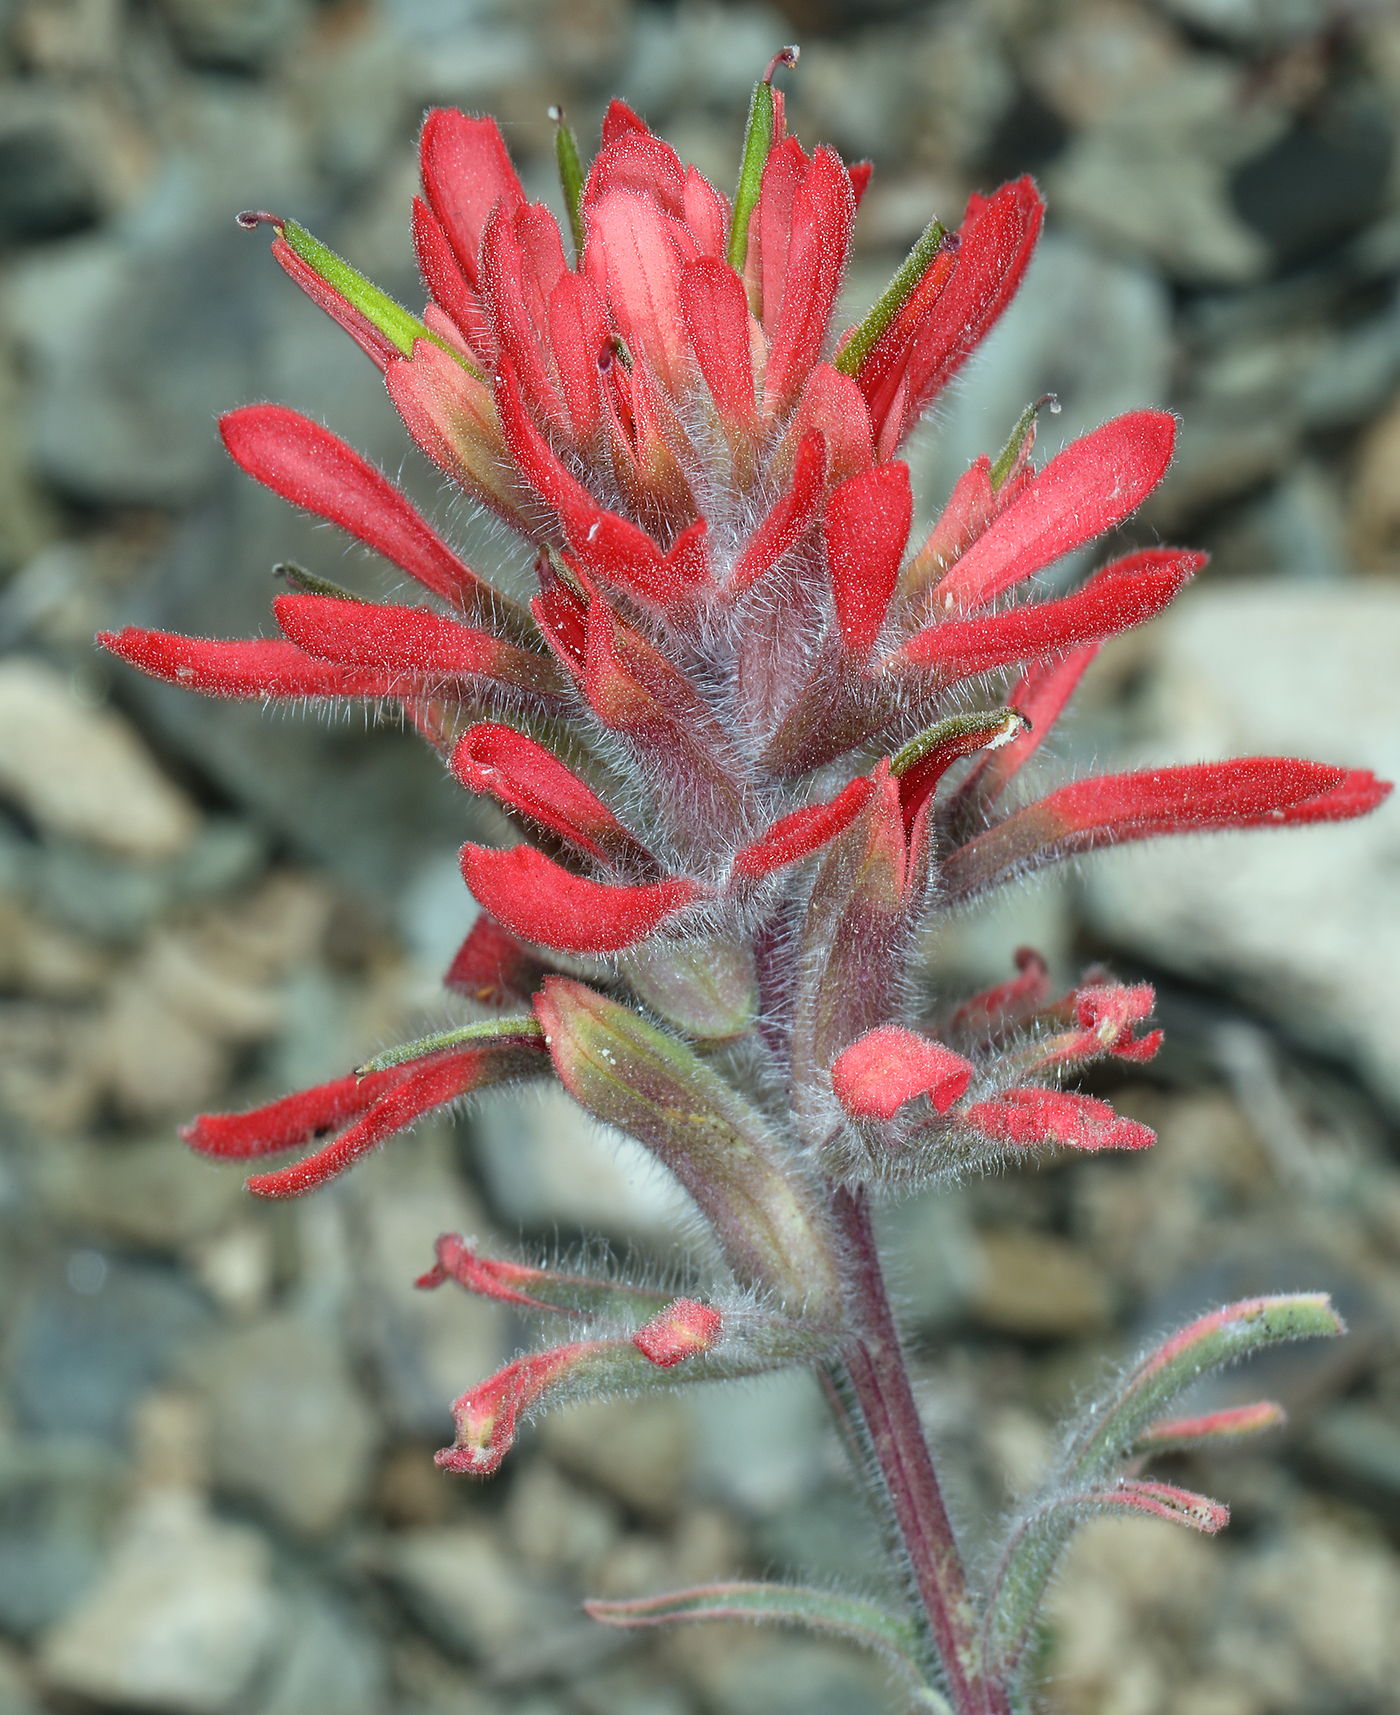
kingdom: Plantae
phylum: Tracheophyta
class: Magnoliopsida
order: Lamiales
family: Orobanchaceae
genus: Castilleja
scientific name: Castilleja chromosa
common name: Desert paintbrush
